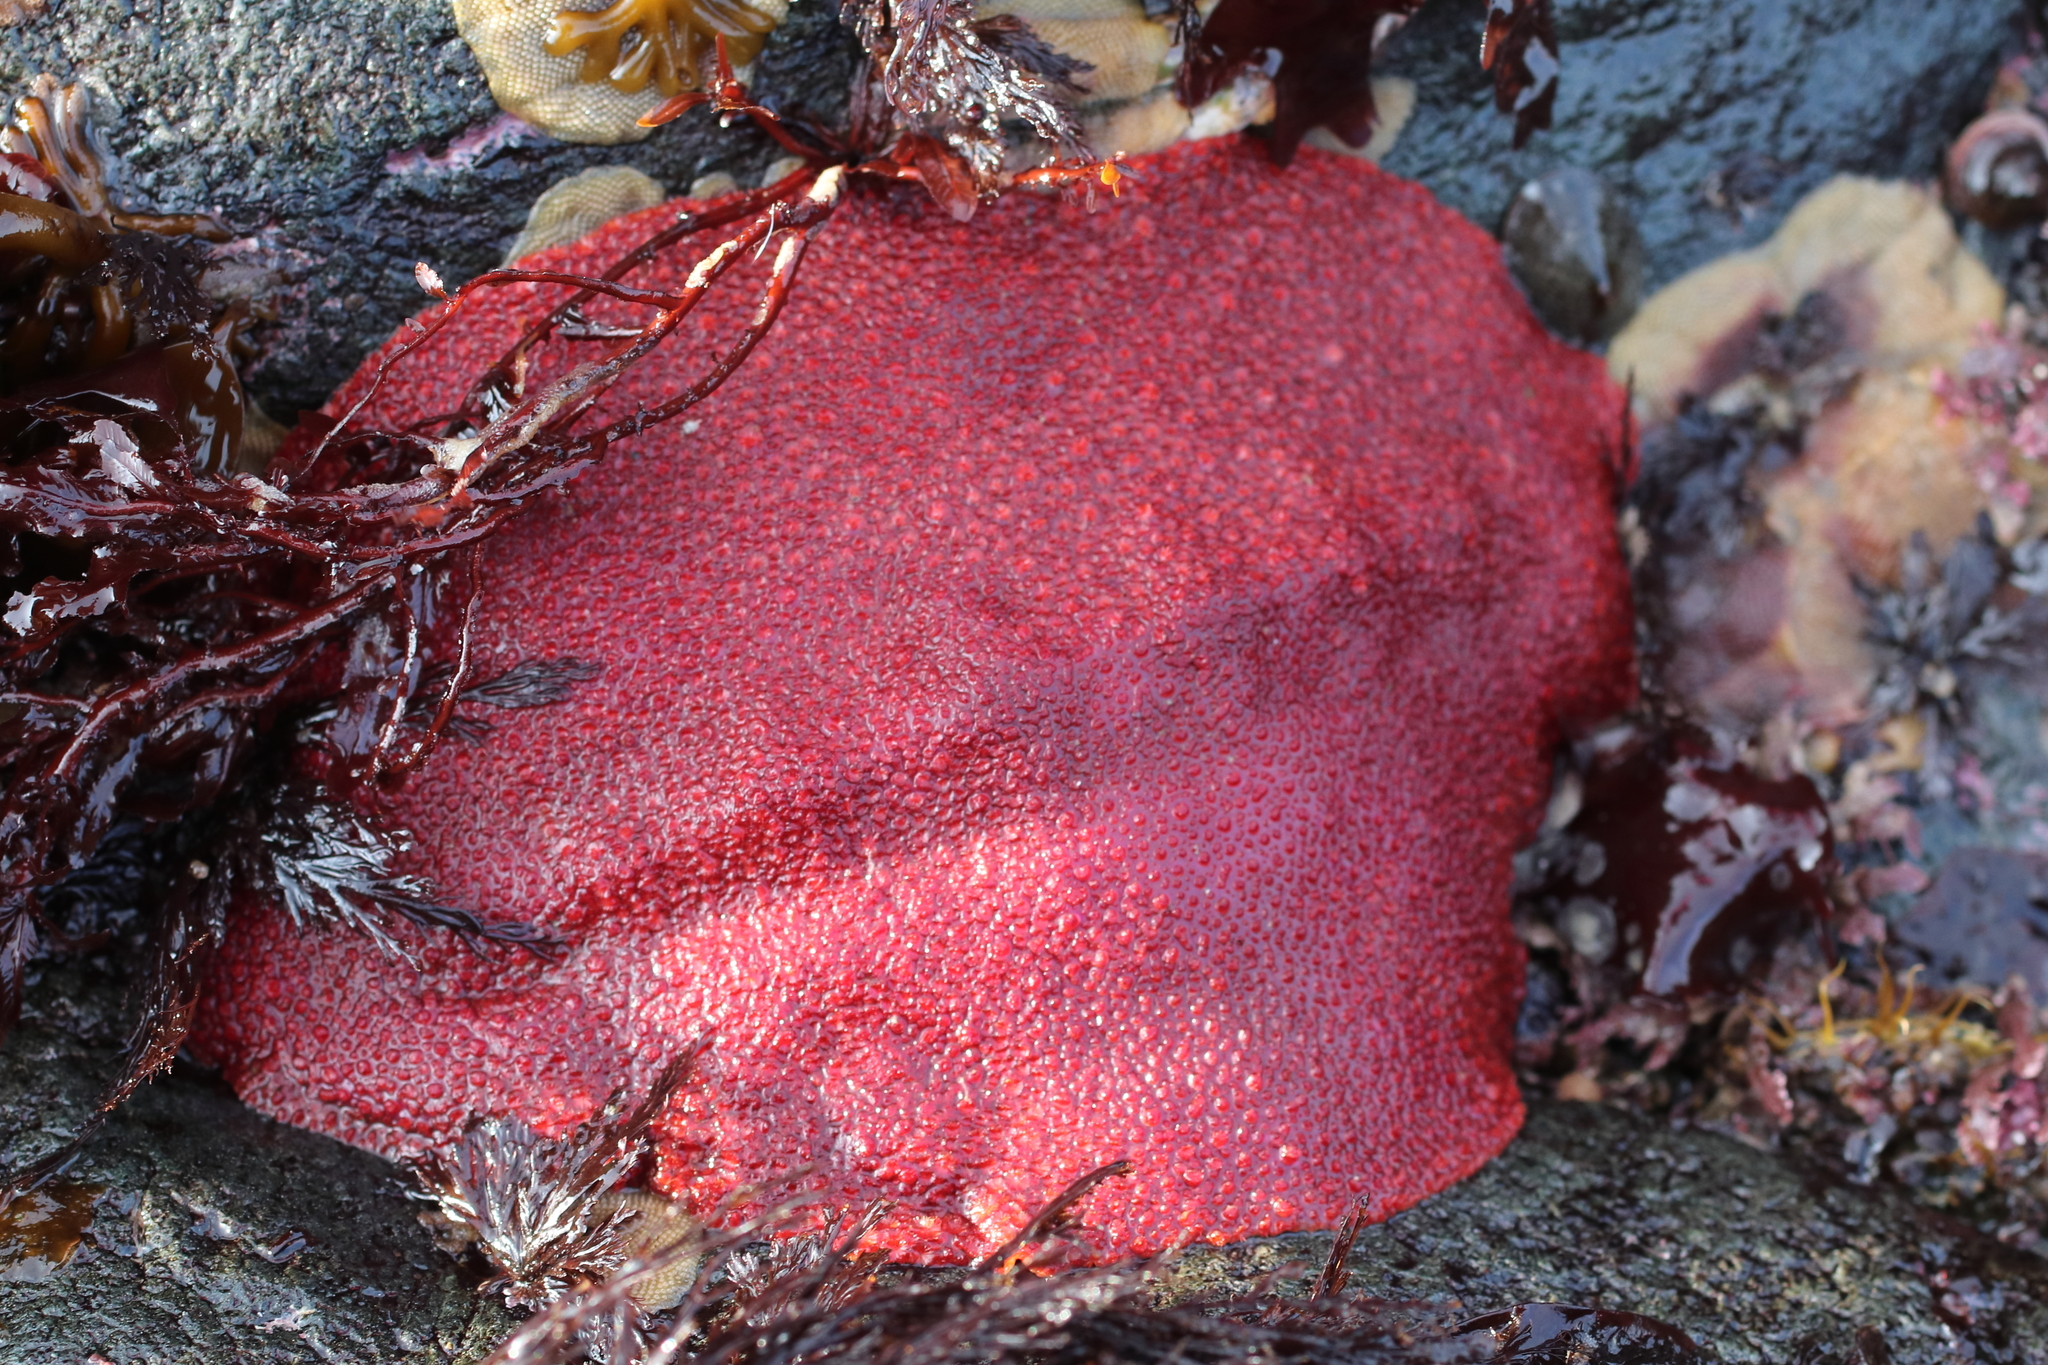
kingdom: Animalia
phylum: Mollusca
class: Polyplacophora
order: Chitonida
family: Acanthochitonidae
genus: Cryptochiton
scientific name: Cryptochiton stelleri
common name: Giant pacific chiton
